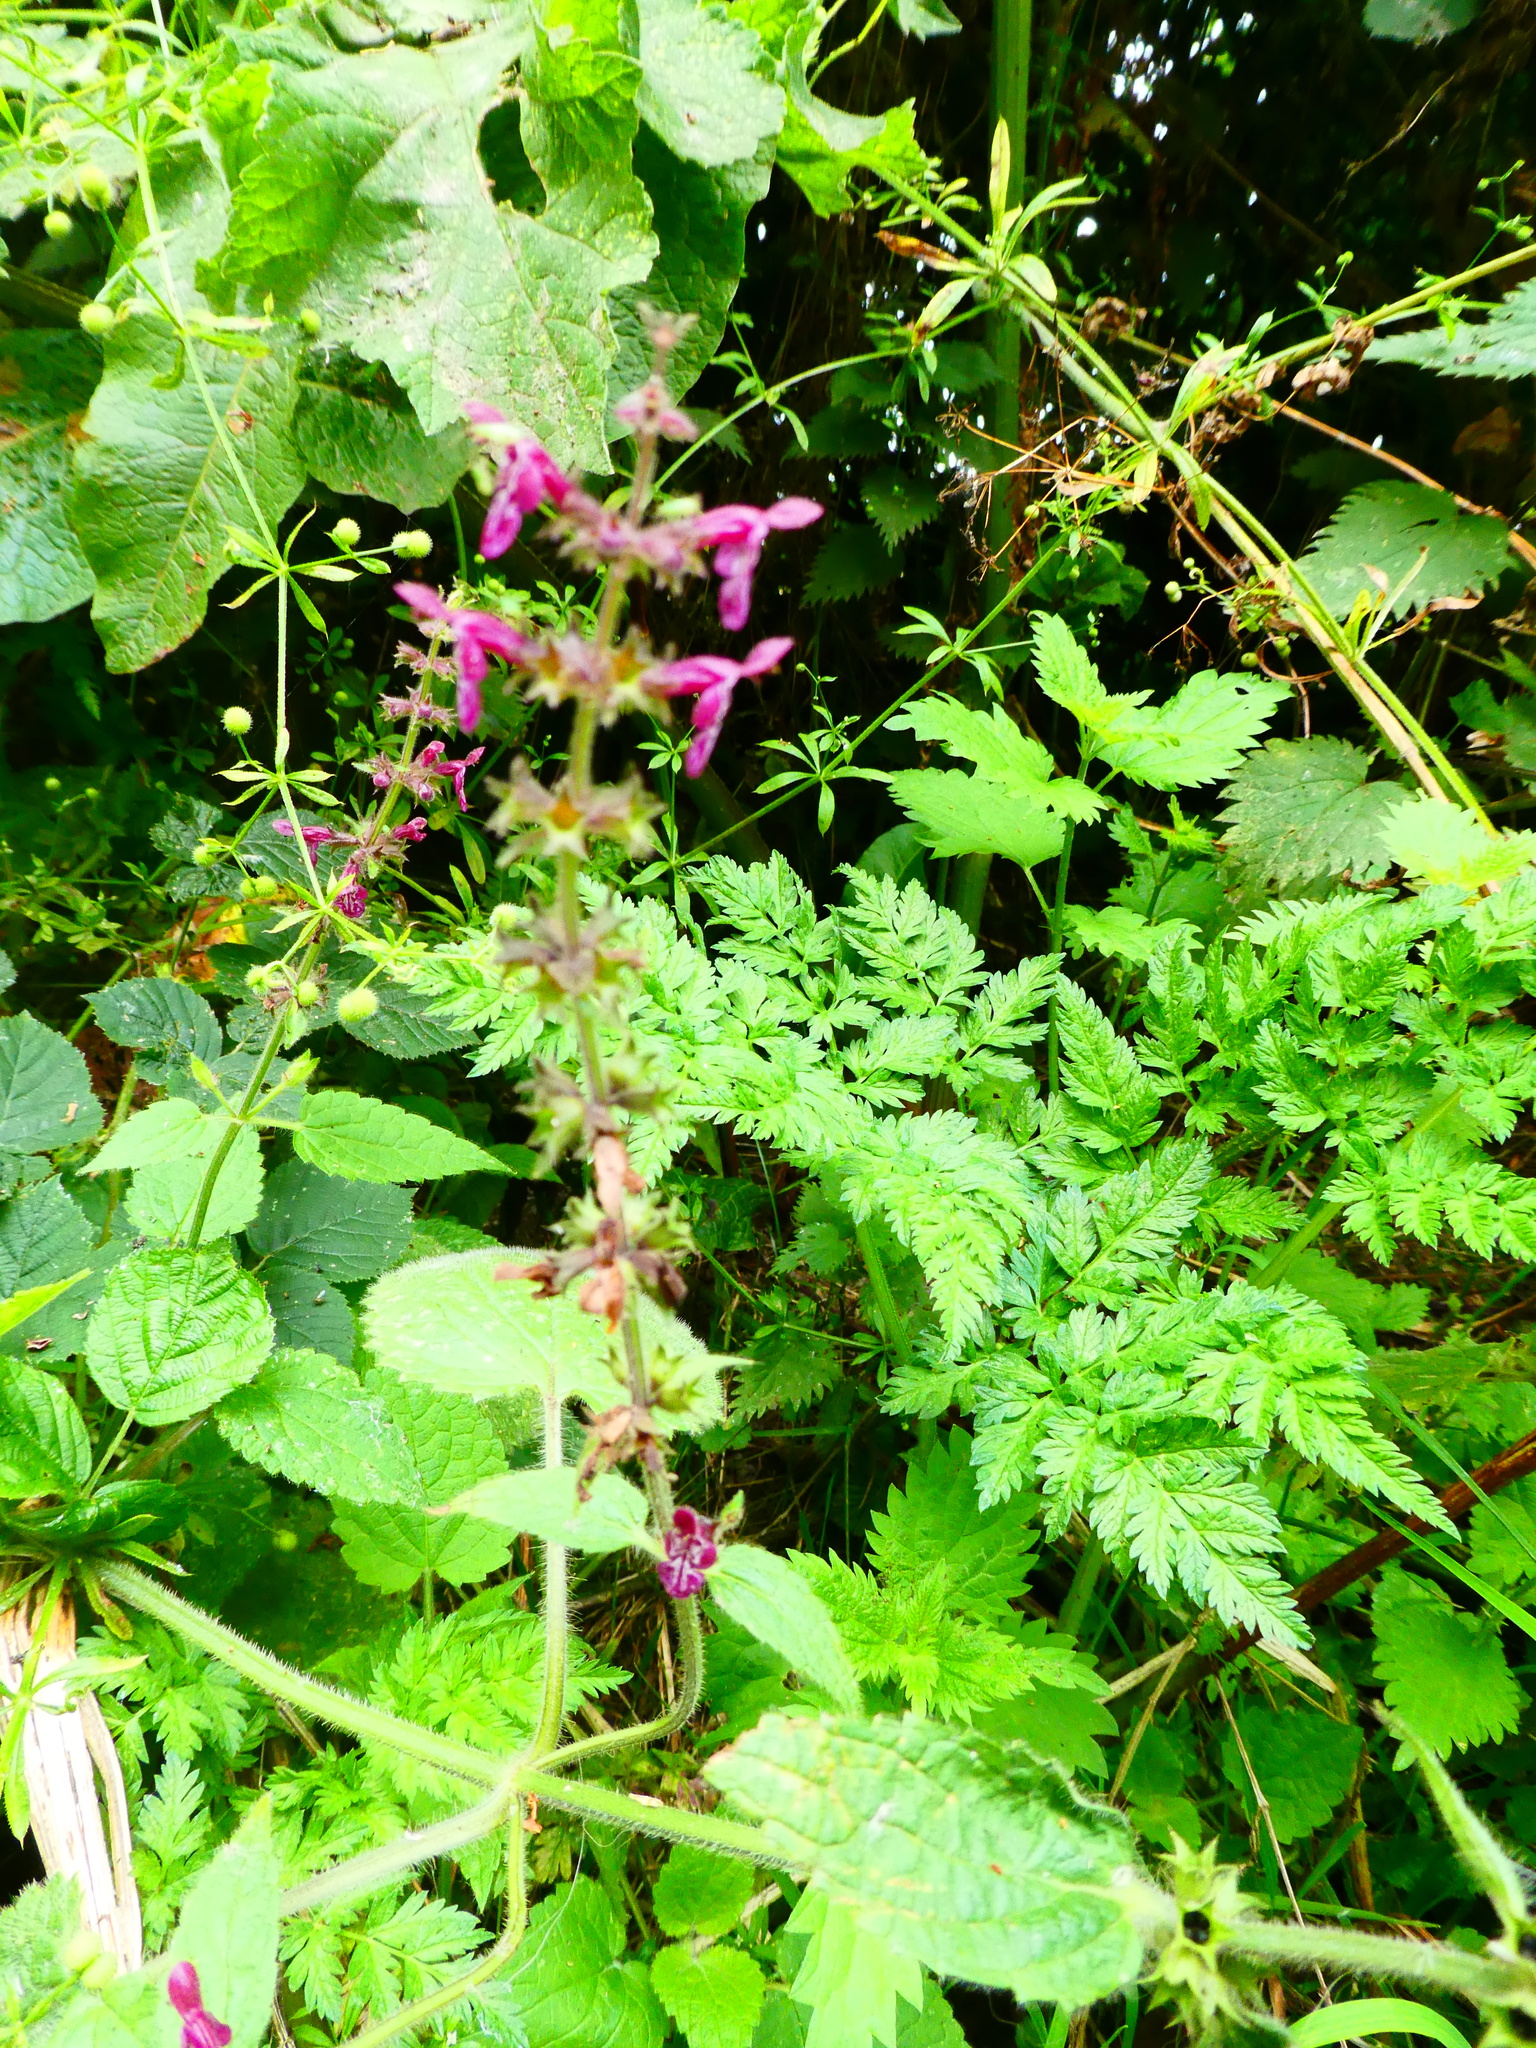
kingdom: Plantae
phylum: Tracheophyta
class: Magnoliopsida
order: Lamiales
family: Lamiaceae
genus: Stachys
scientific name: Stachys sylvatica
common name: Hedge woundwort
